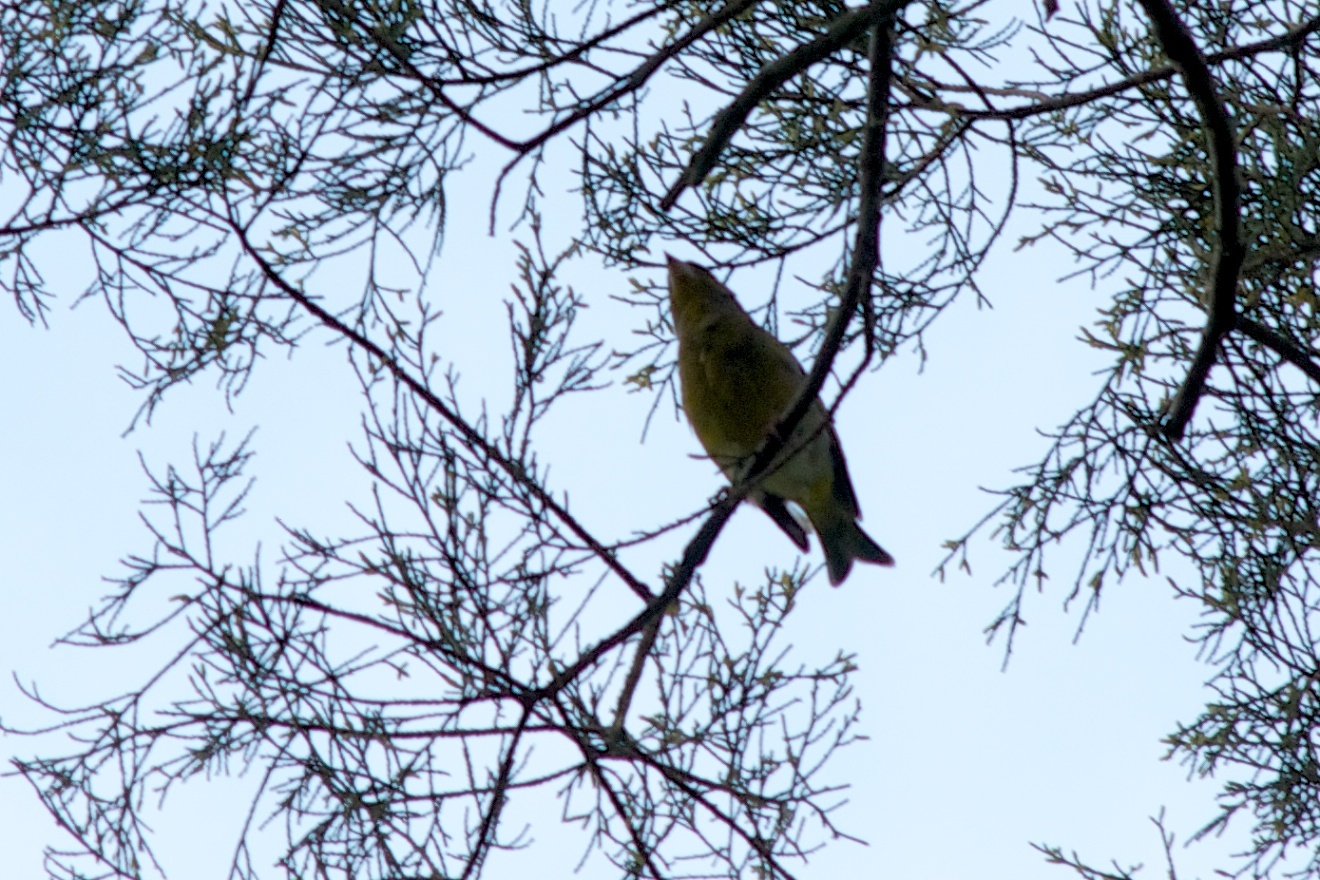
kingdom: Plantae
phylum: Tracheophyta
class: Liliopsida
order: Poales
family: Poaceae
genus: Chloris
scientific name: Chloris chloris
